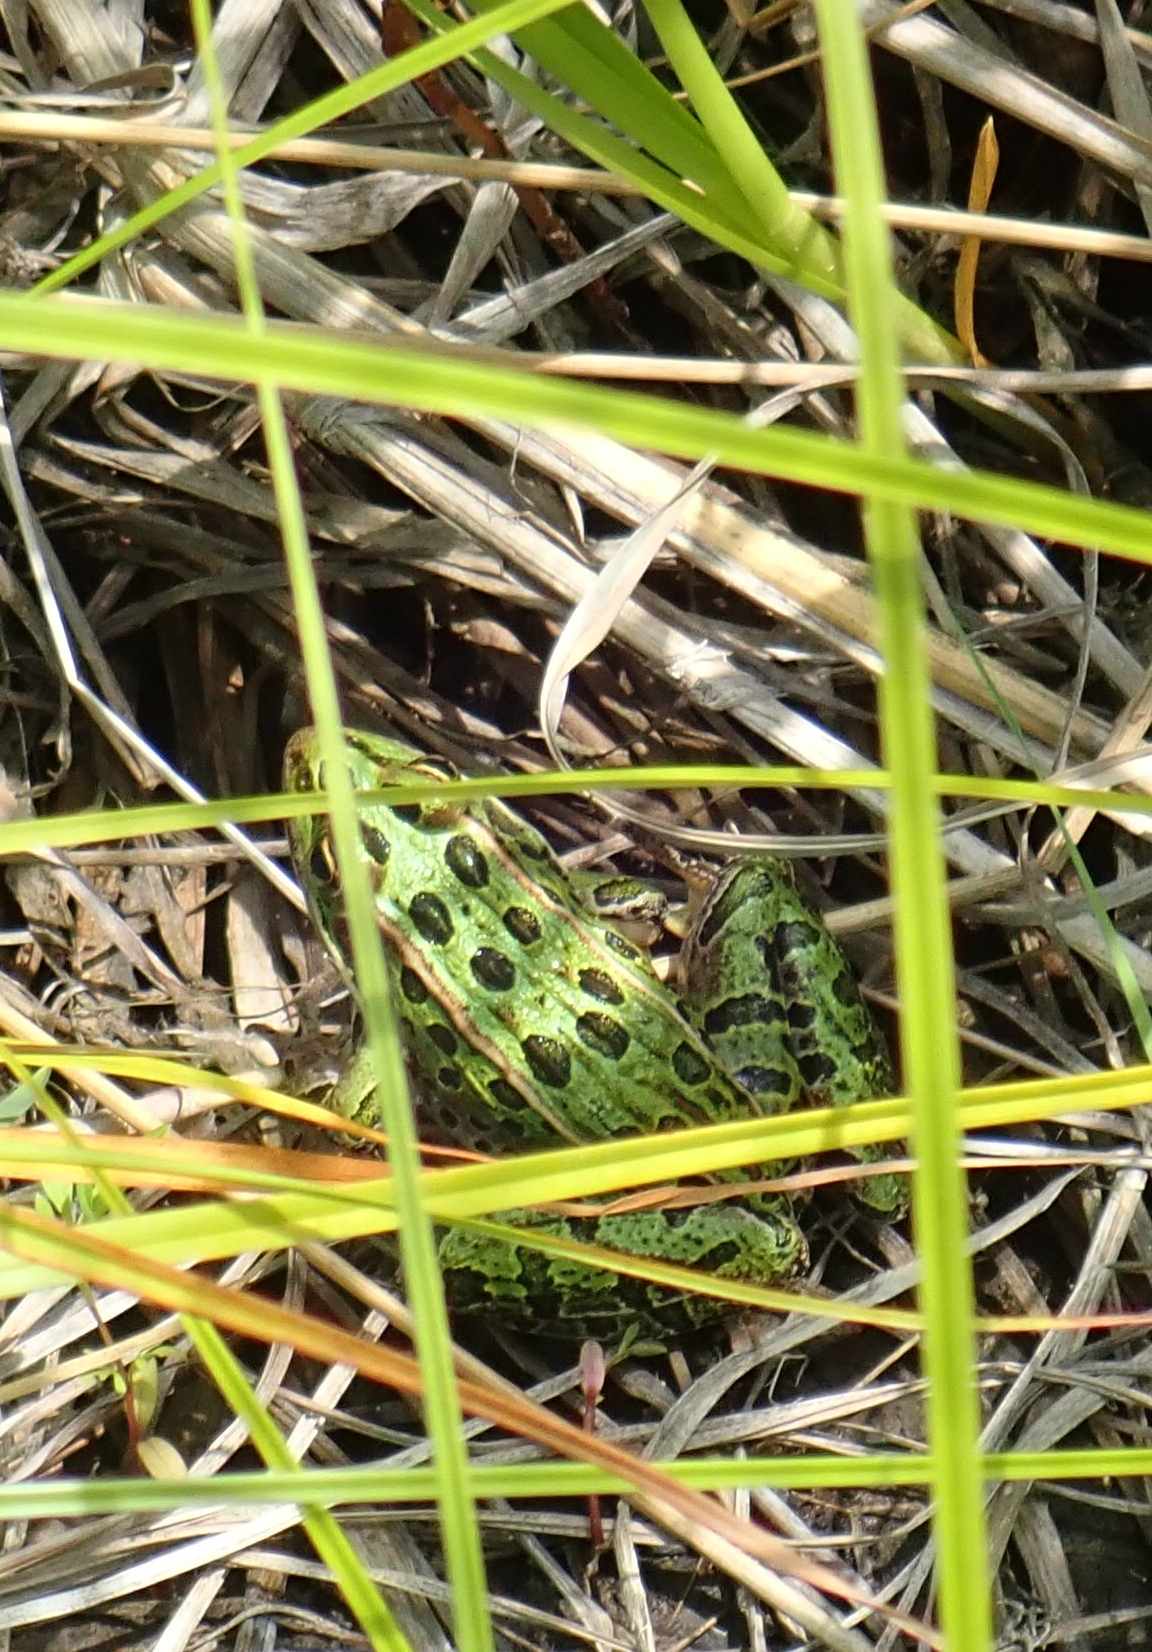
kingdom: Animalia
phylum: Chordata
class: Amphibia
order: Anura
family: Ranidae
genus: Lithobates
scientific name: Lithobates pipiens
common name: Northern leopard frog
